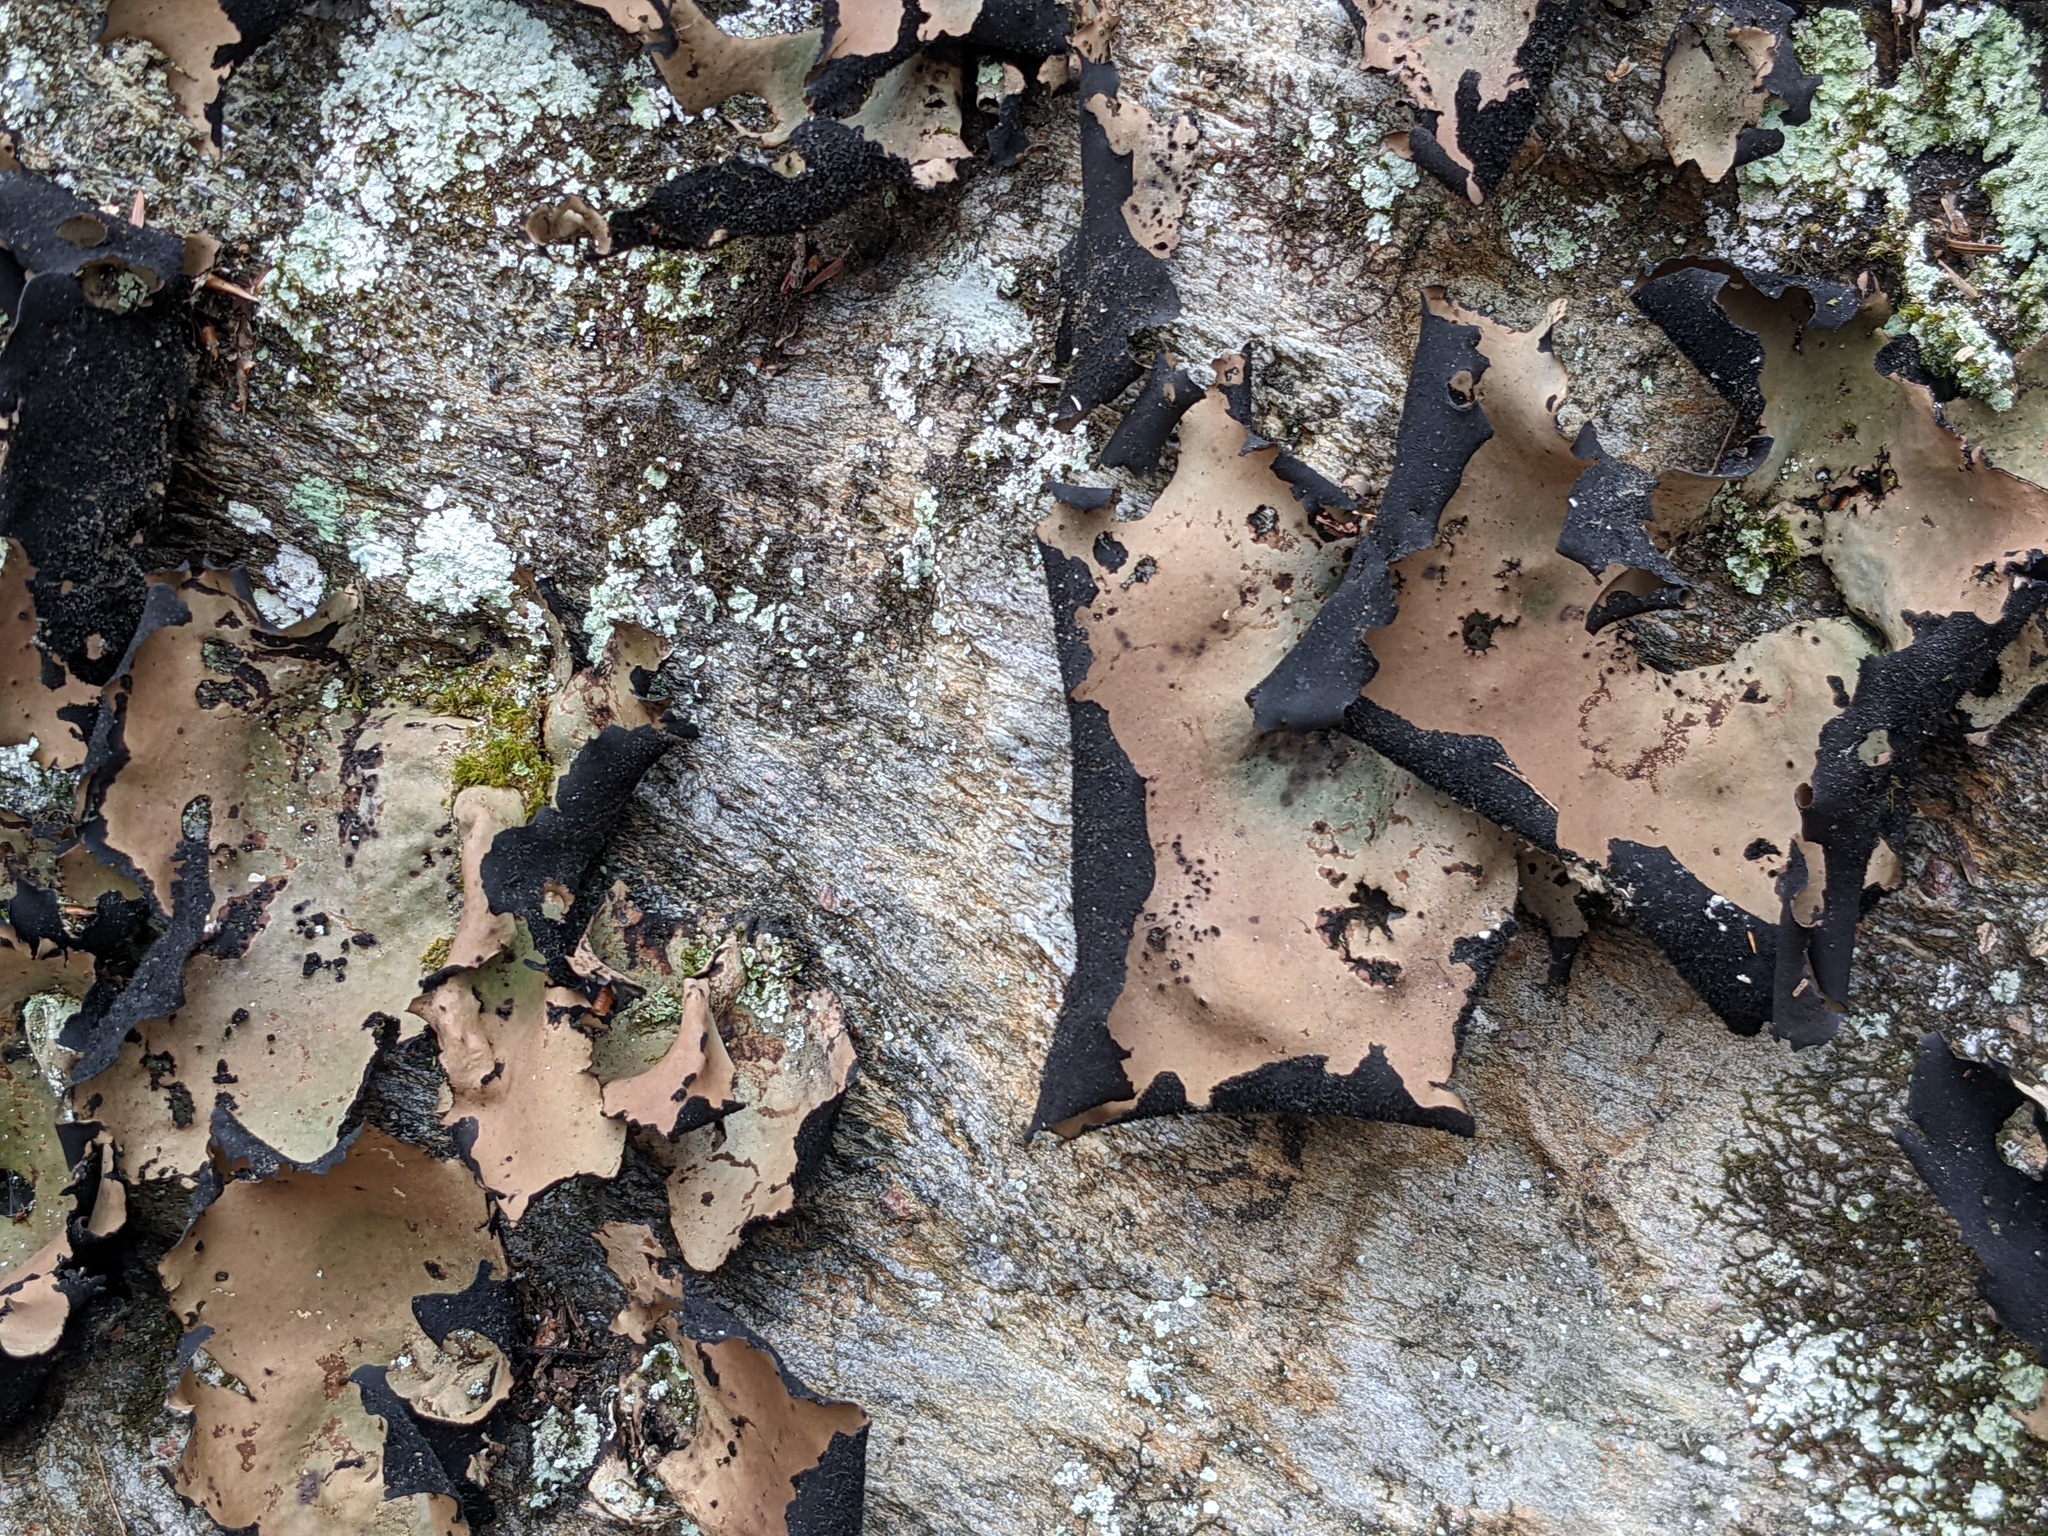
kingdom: Fungi
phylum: Ascomycota
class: Lecanoromycetes
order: Umbilicariales
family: Umbilicariaceae
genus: Umbilicaria
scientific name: Umbilicaria mammulata
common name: Smooth rock tripe
